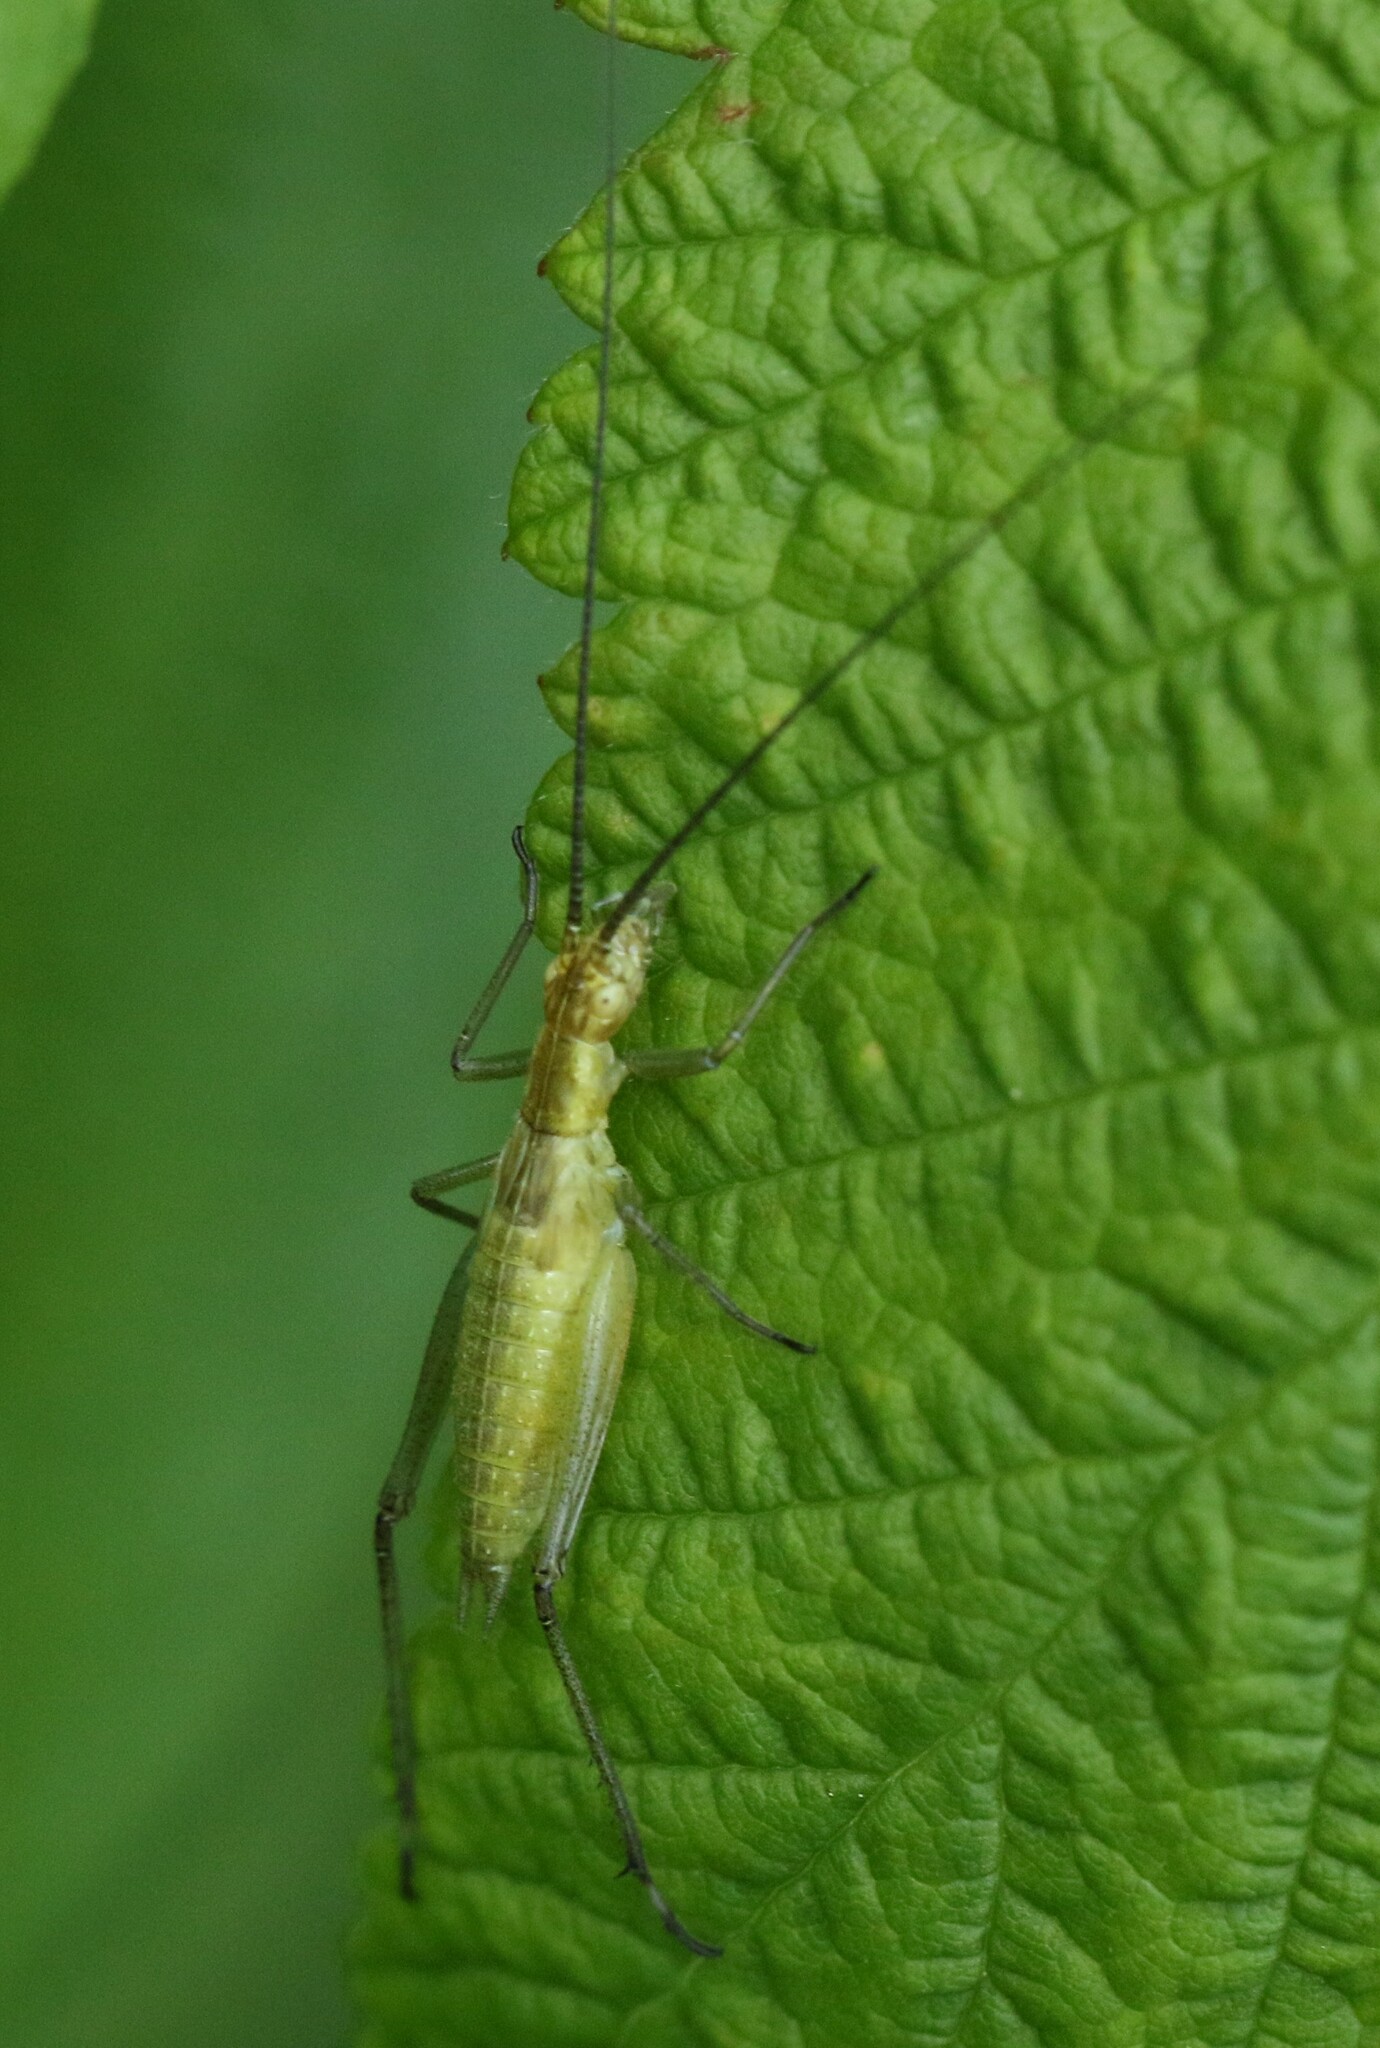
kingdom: Animalia
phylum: Arthropoda
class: Insecta
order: Orthoptera
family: Gryllidae
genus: Oecanthus
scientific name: Oecanthus nigricornis
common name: Black-horned tree cricket
